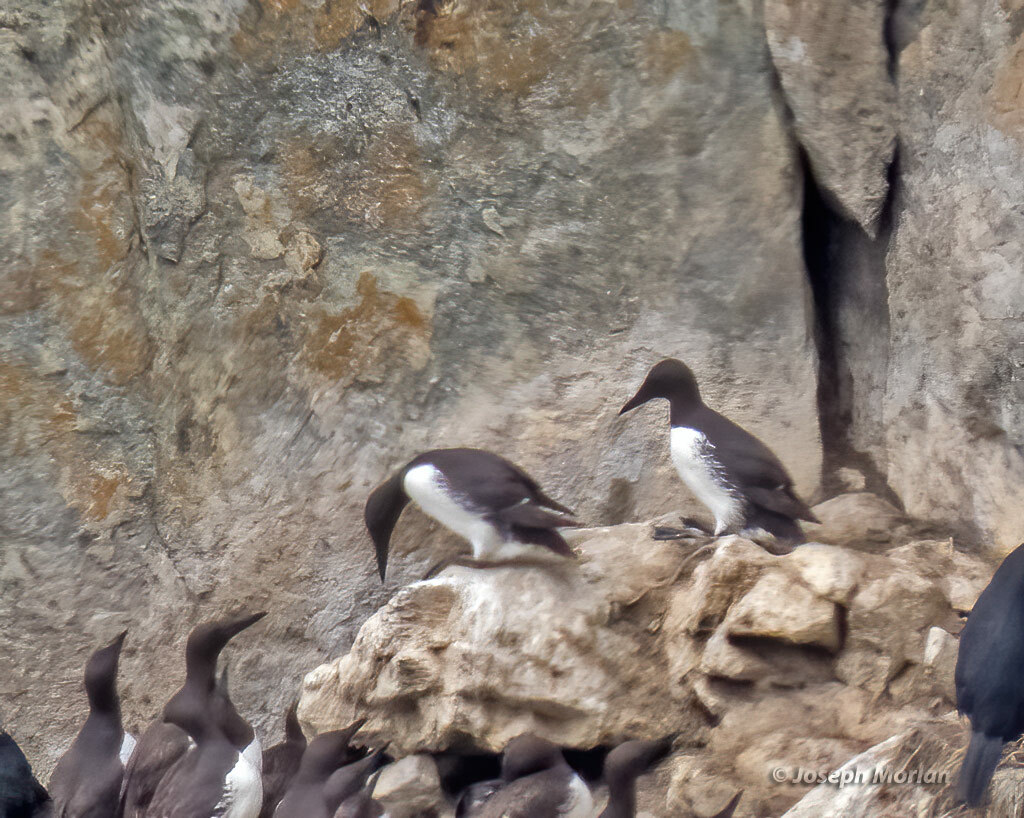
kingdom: Animalia
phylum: Chordata
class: Aves
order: Charadriiformes
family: Alcidae
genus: Uria
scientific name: Uria aalge
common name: Common murre
